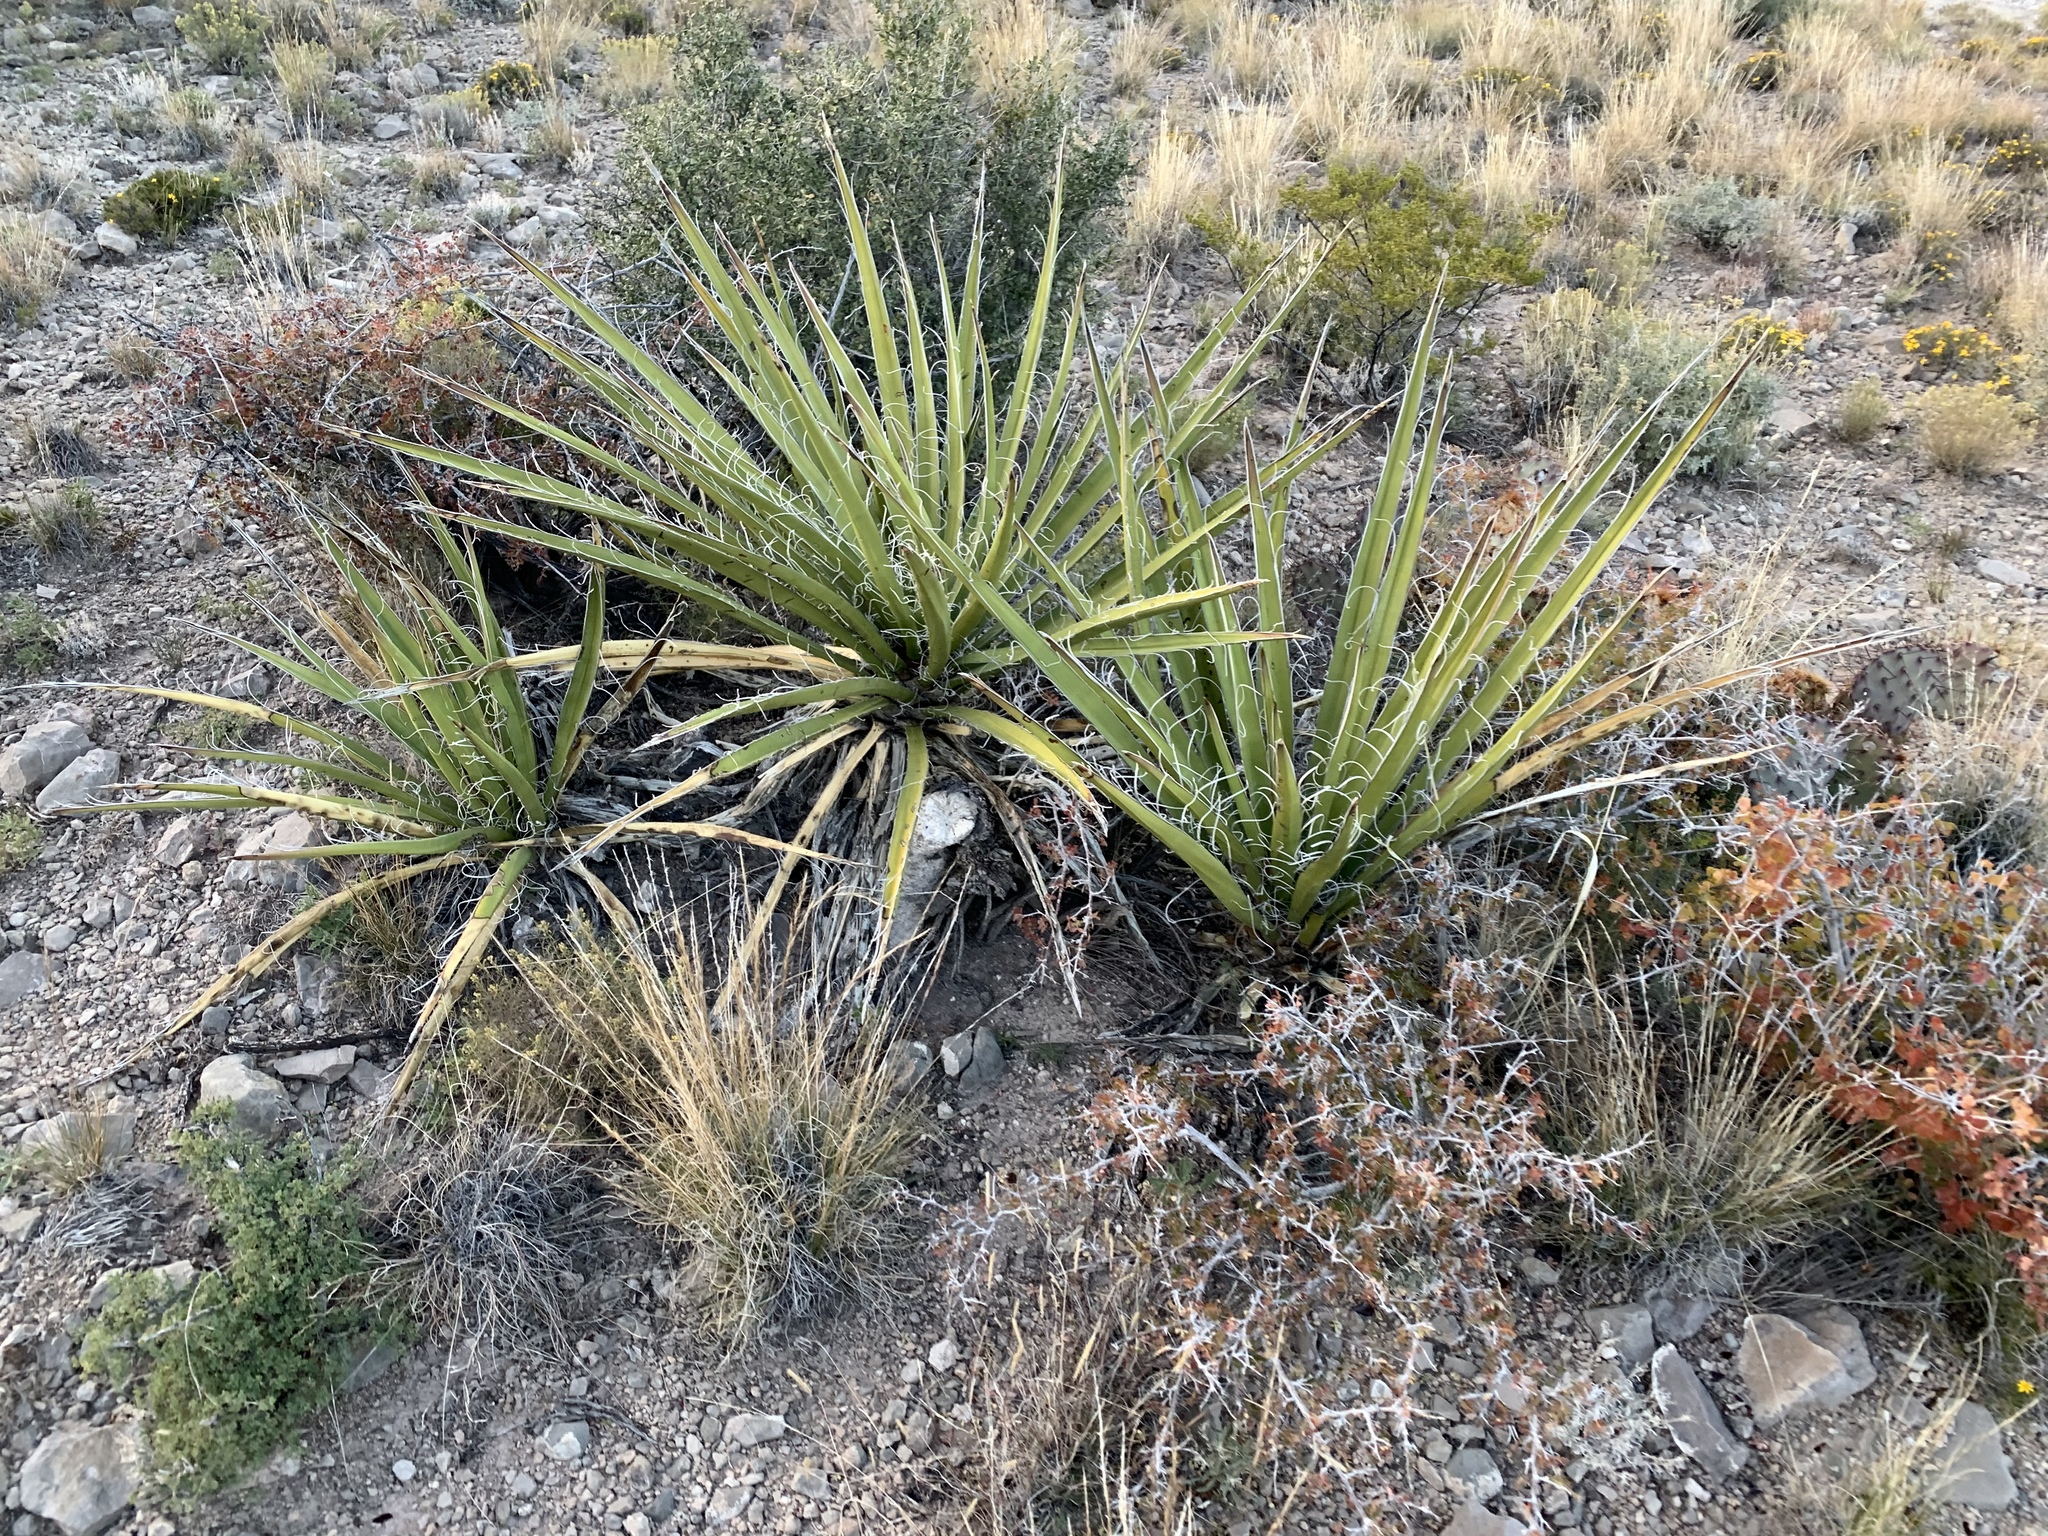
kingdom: Plantae
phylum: Tracheophyta
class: Liliopsida
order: Asparagales
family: Asparagaceae
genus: Yucca
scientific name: Yucca baccata
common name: Banana yucca
